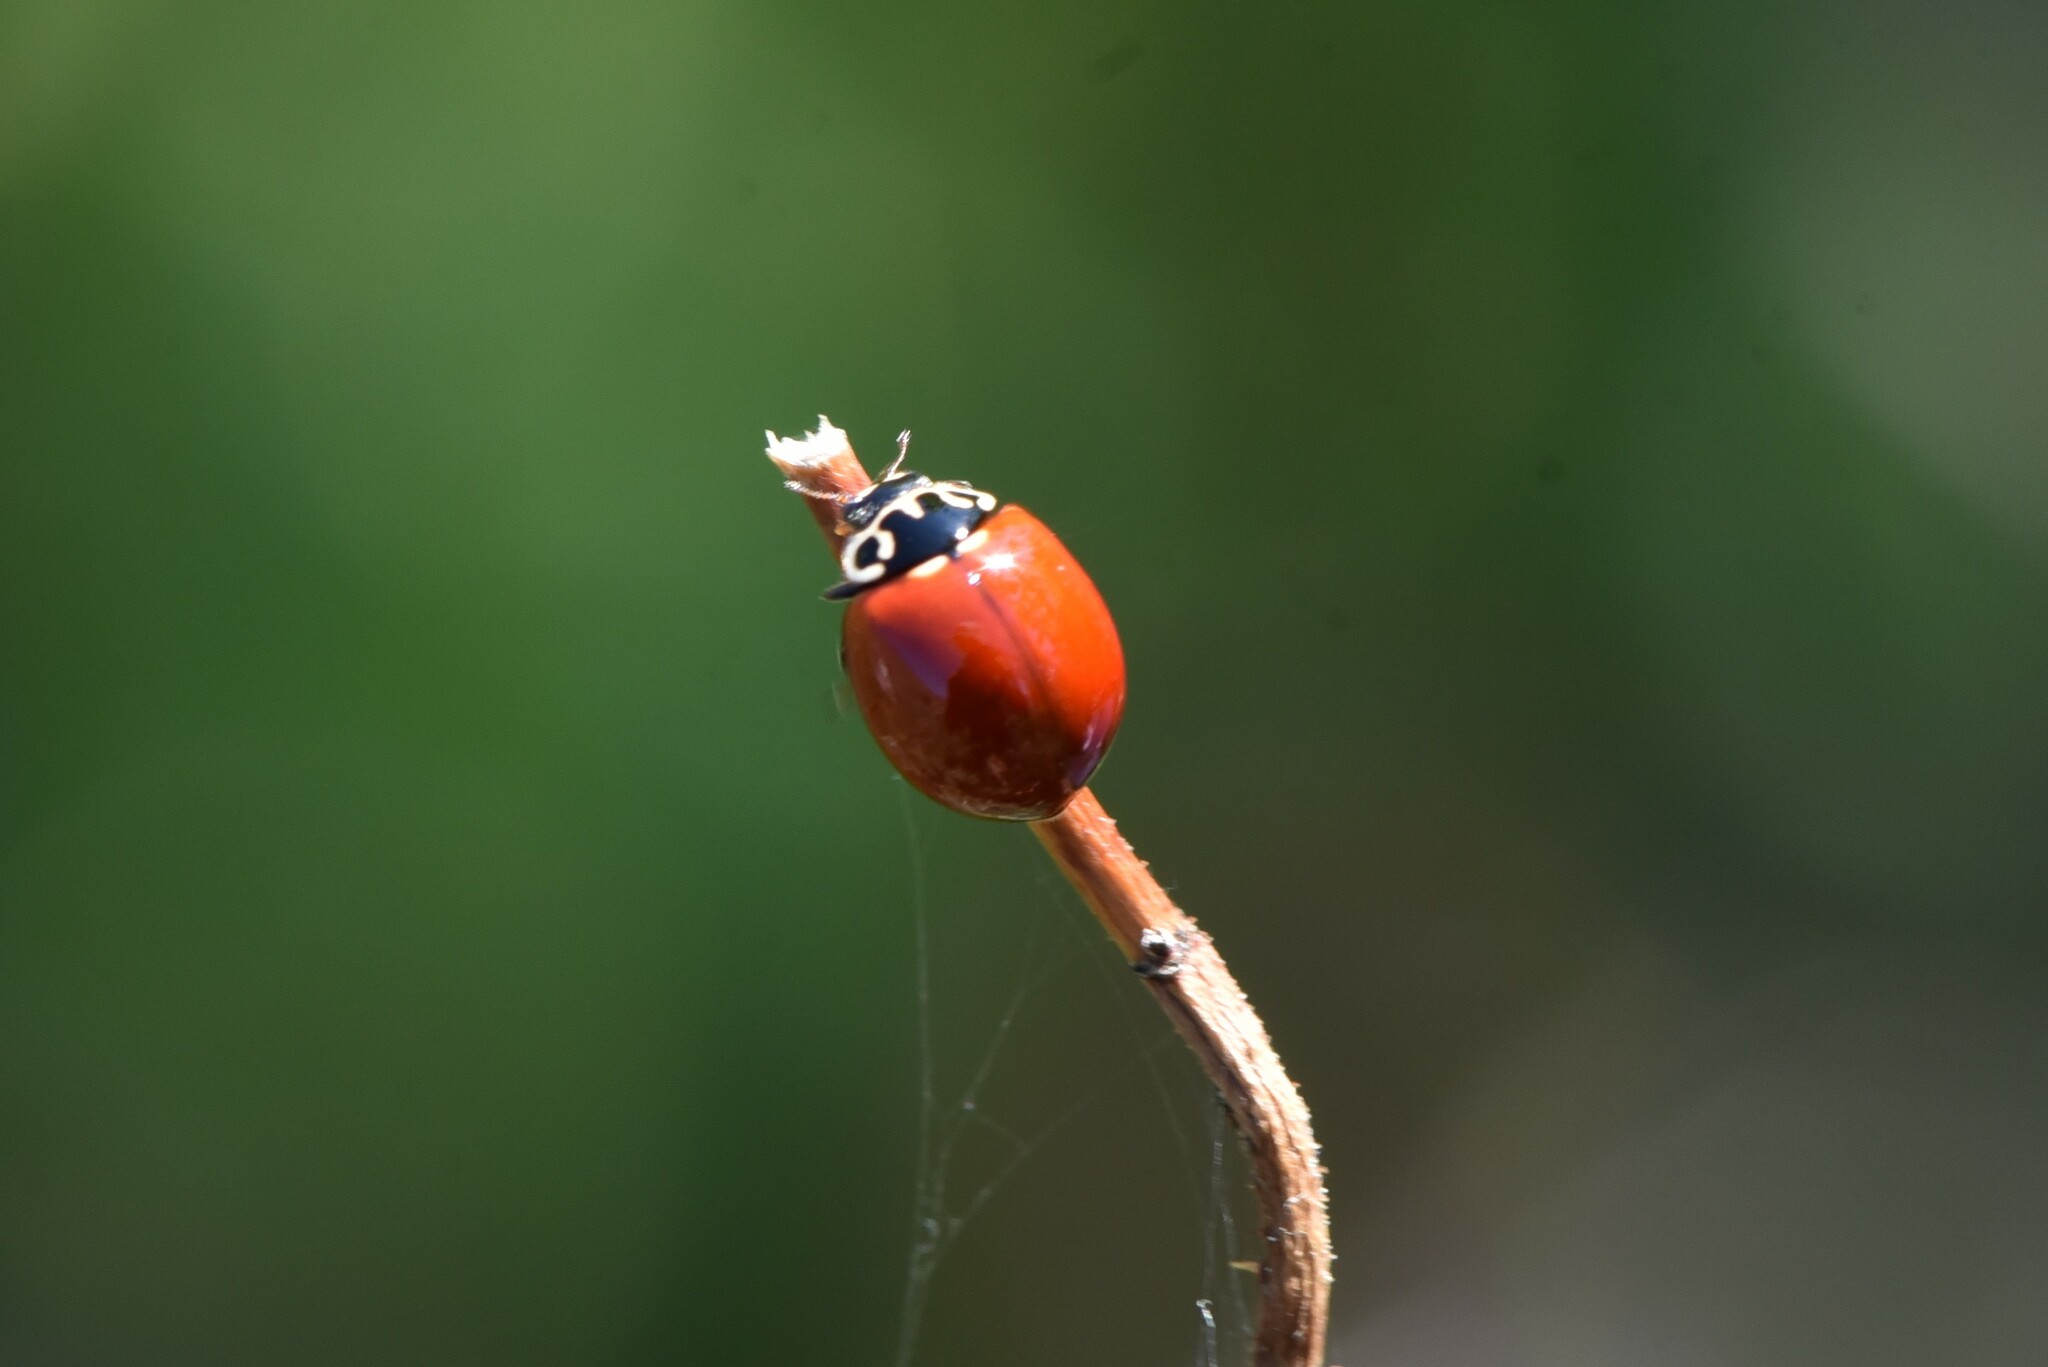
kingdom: Animalia
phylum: Arthropoda
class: Insecta
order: Coleoptera
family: Coccinellidae
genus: Cycloneda
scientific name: Cycloneda polita
